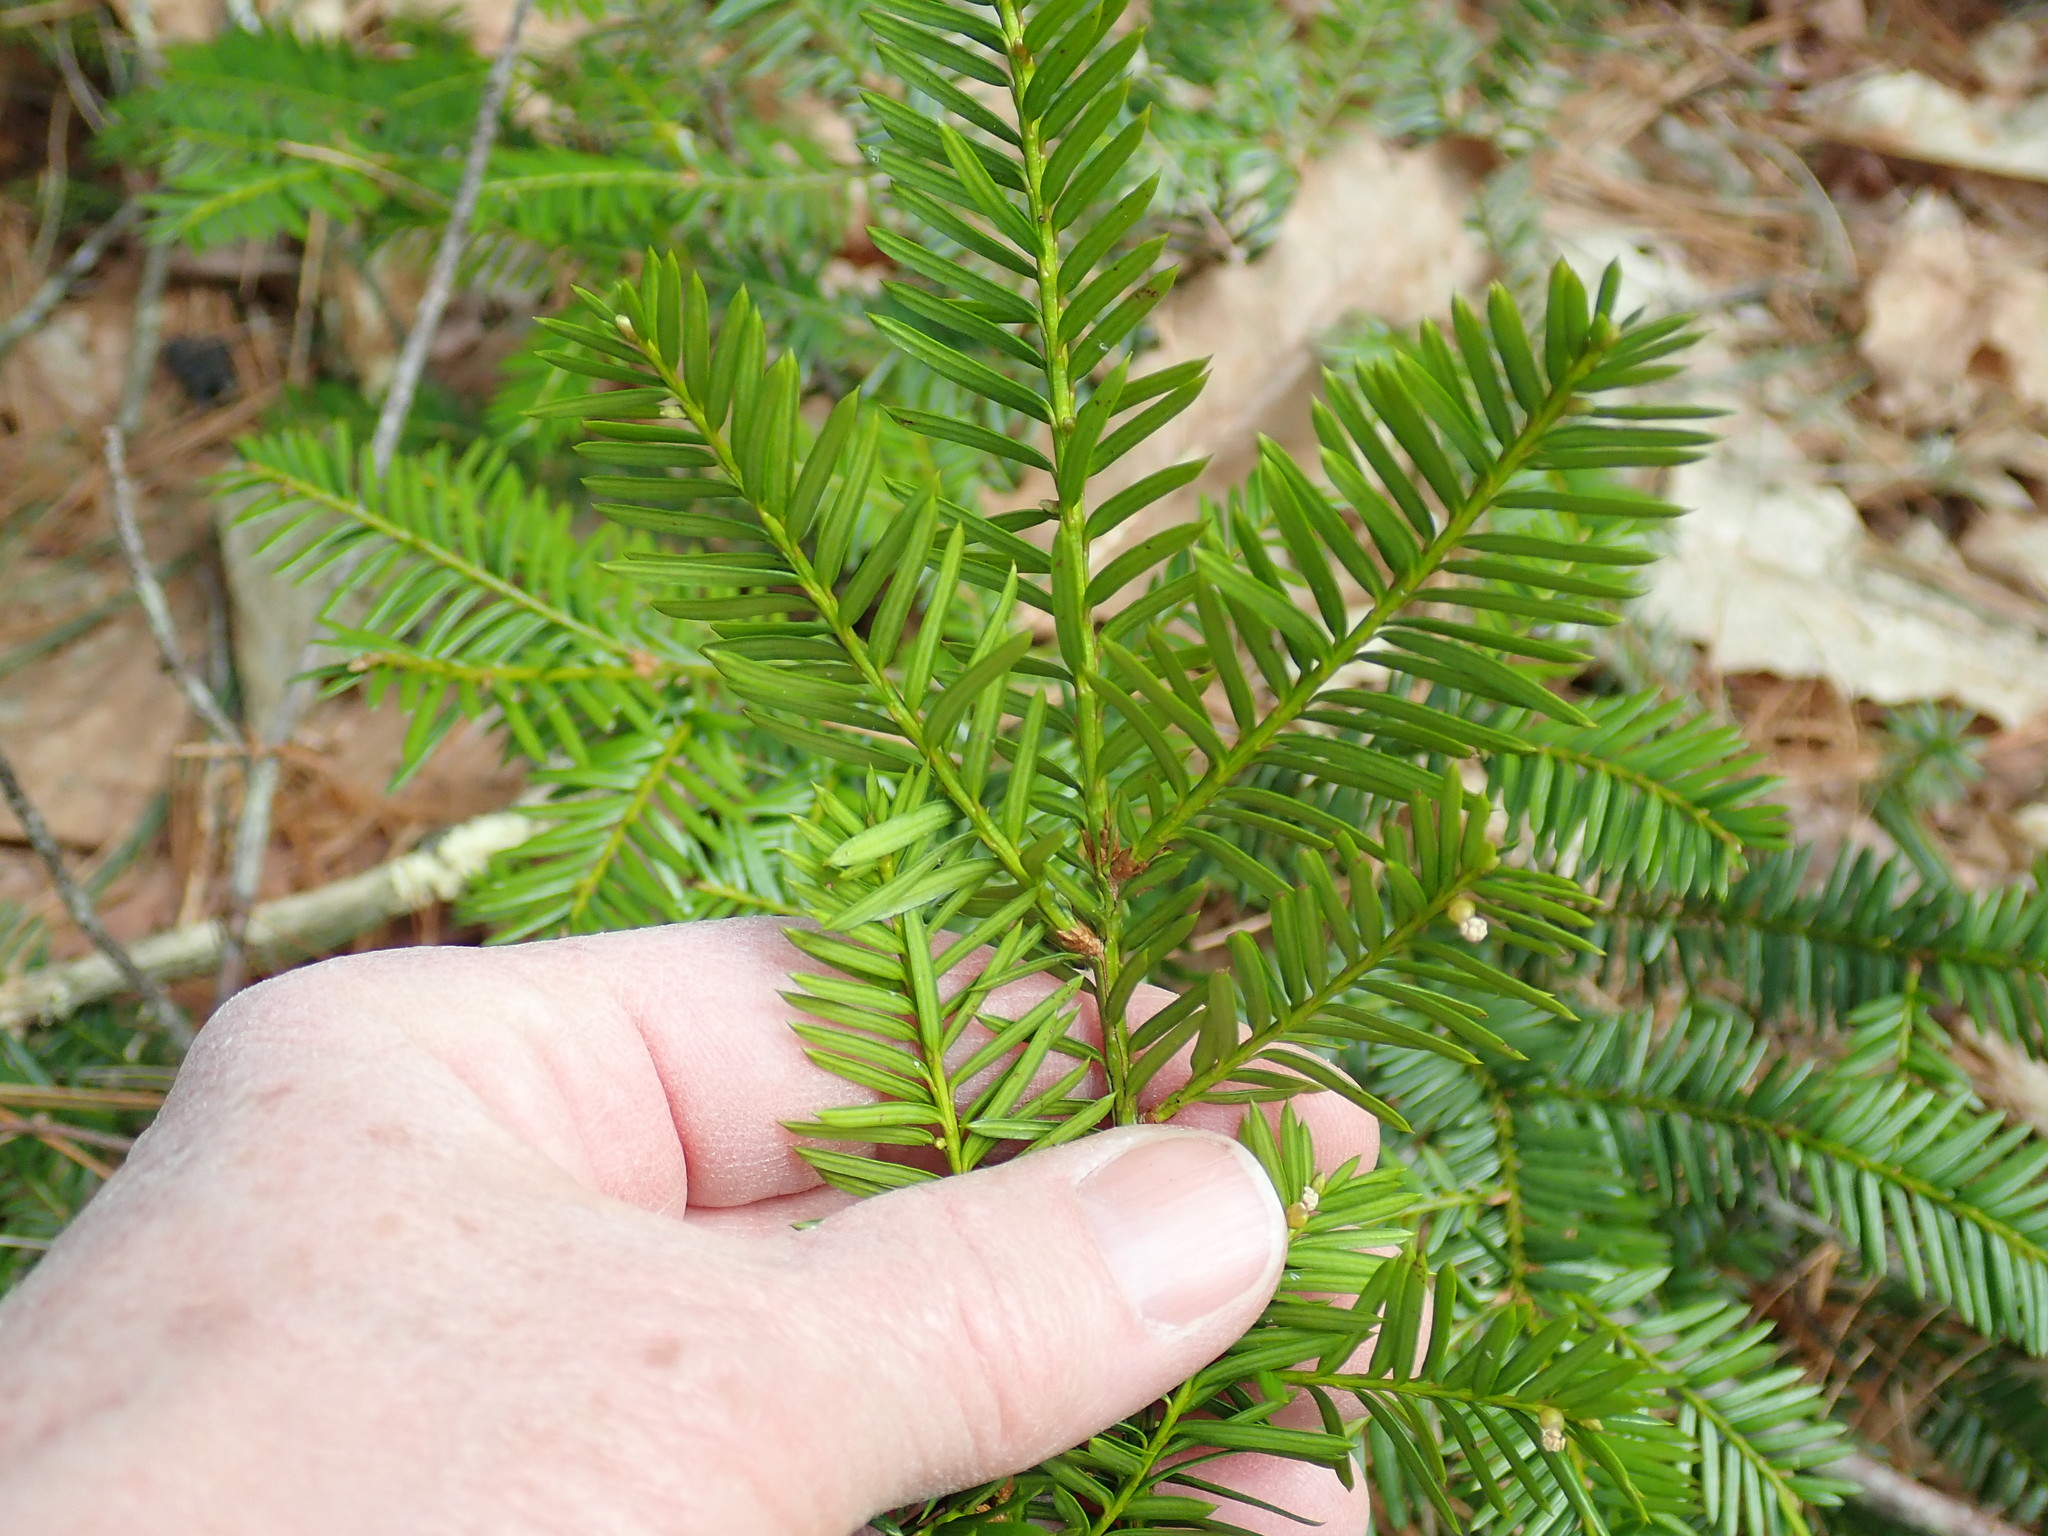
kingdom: Plantae
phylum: Tracheophyta
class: Pinopsida
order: Pinales
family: Taxaceae
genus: Taxus
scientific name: Taxus canadensis
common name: American yew
